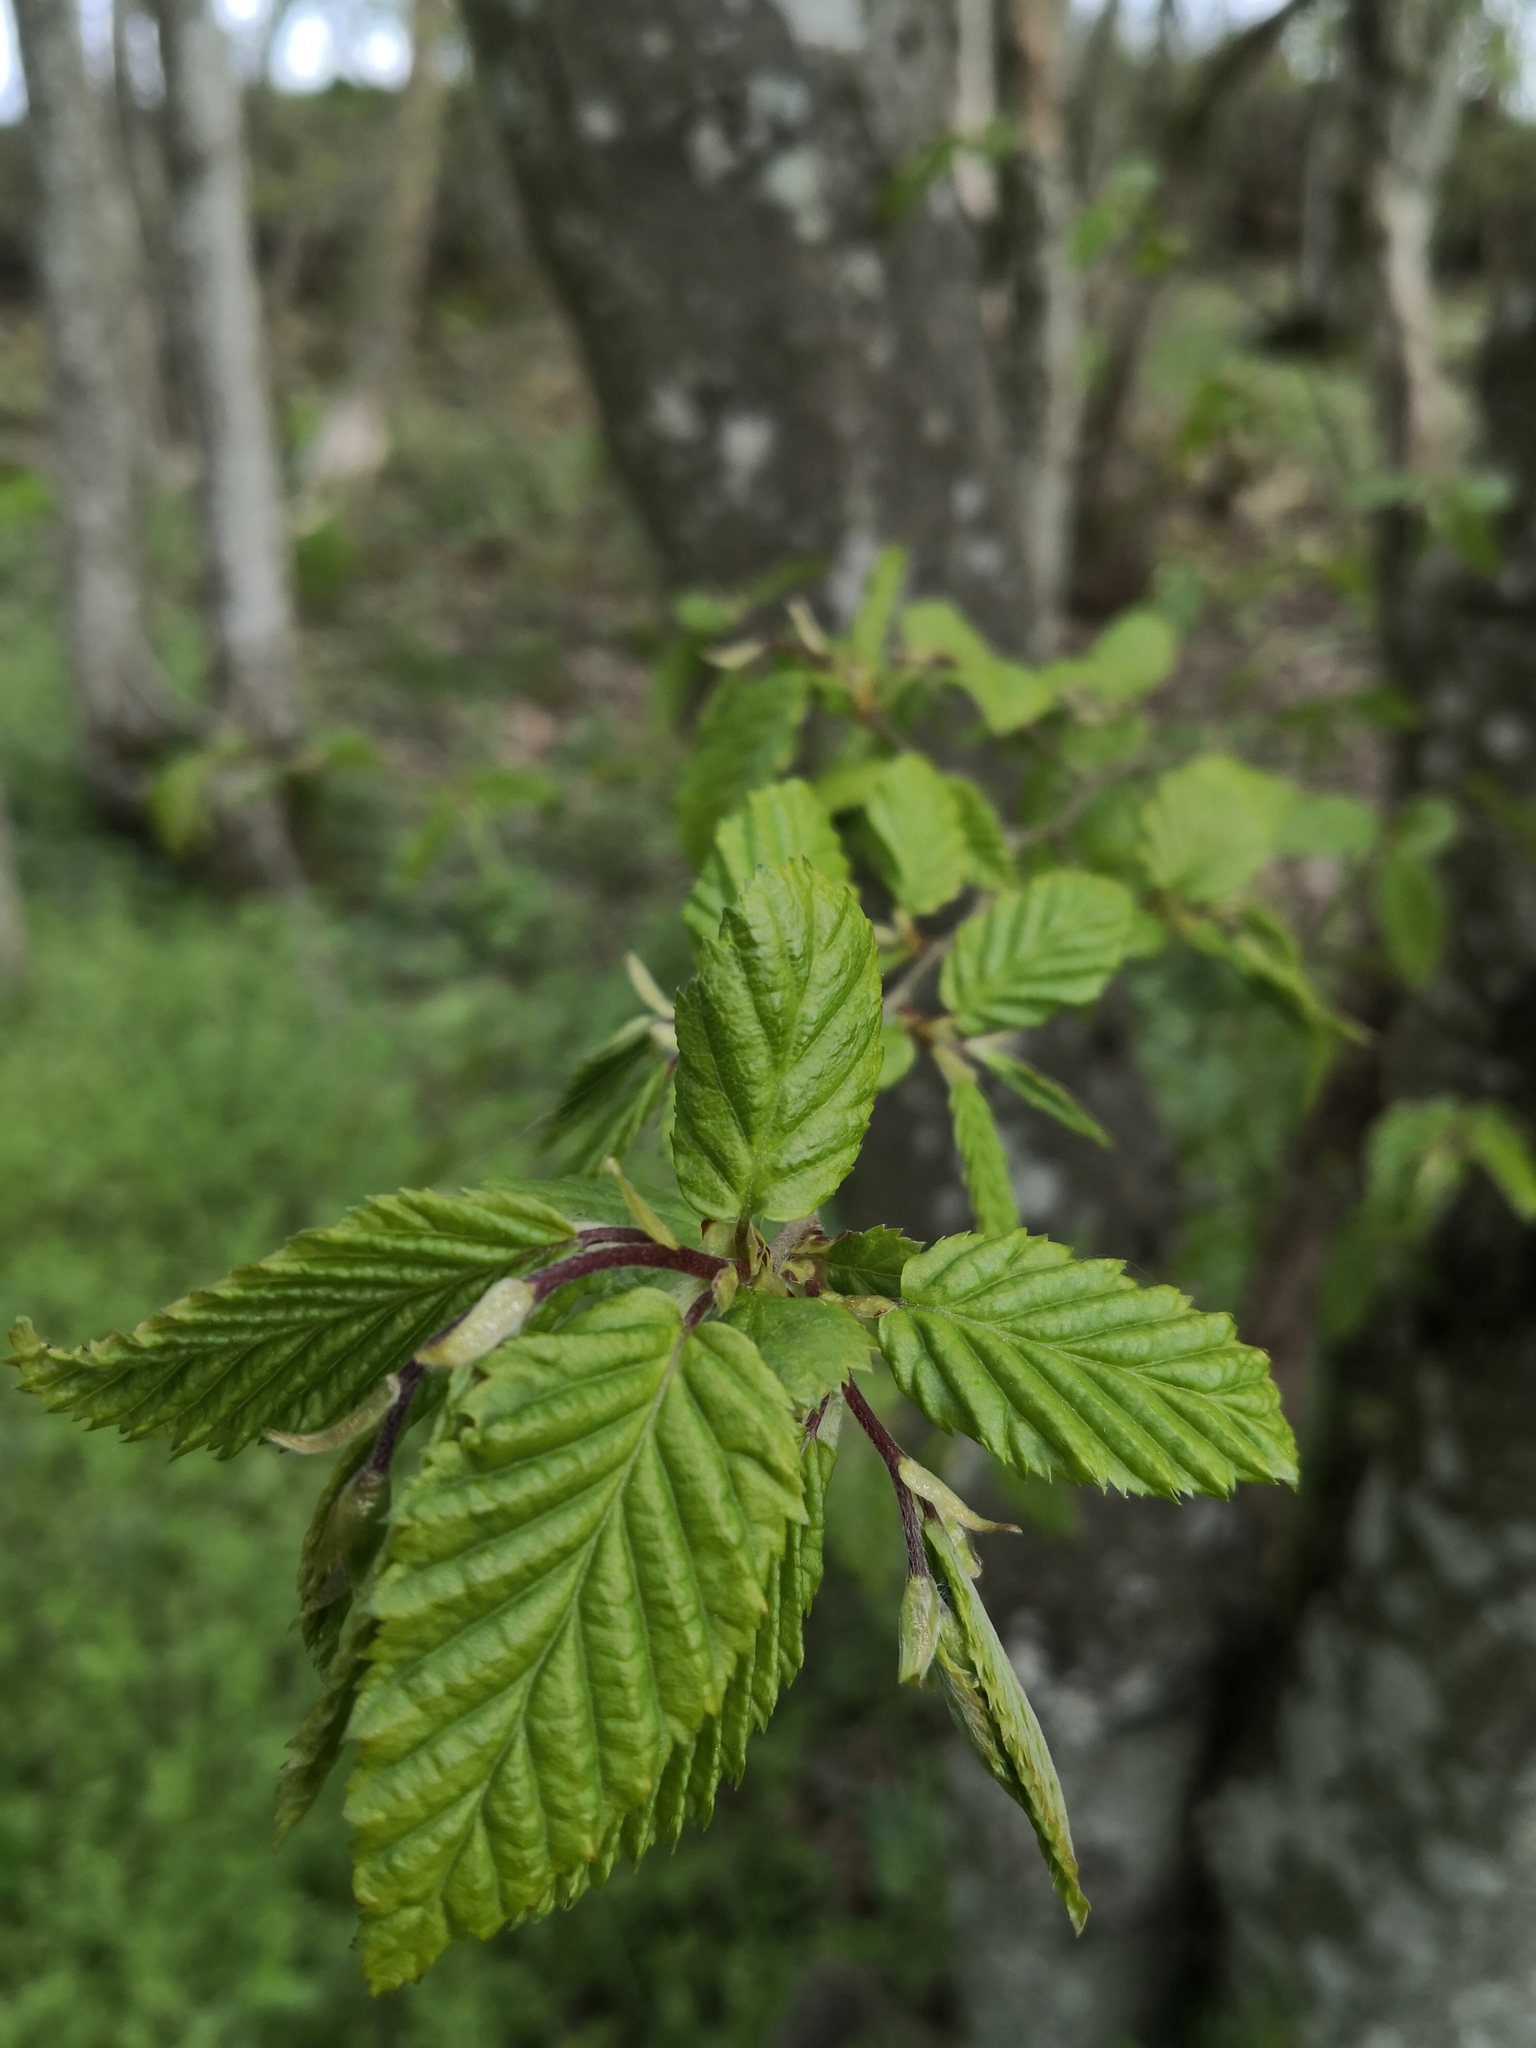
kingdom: Plantae
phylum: Tracheophyta
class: Magnoliopsida
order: Fagales
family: Betulaceae
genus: Carpinus
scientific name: Carpinus betulus
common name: Hornbeam
